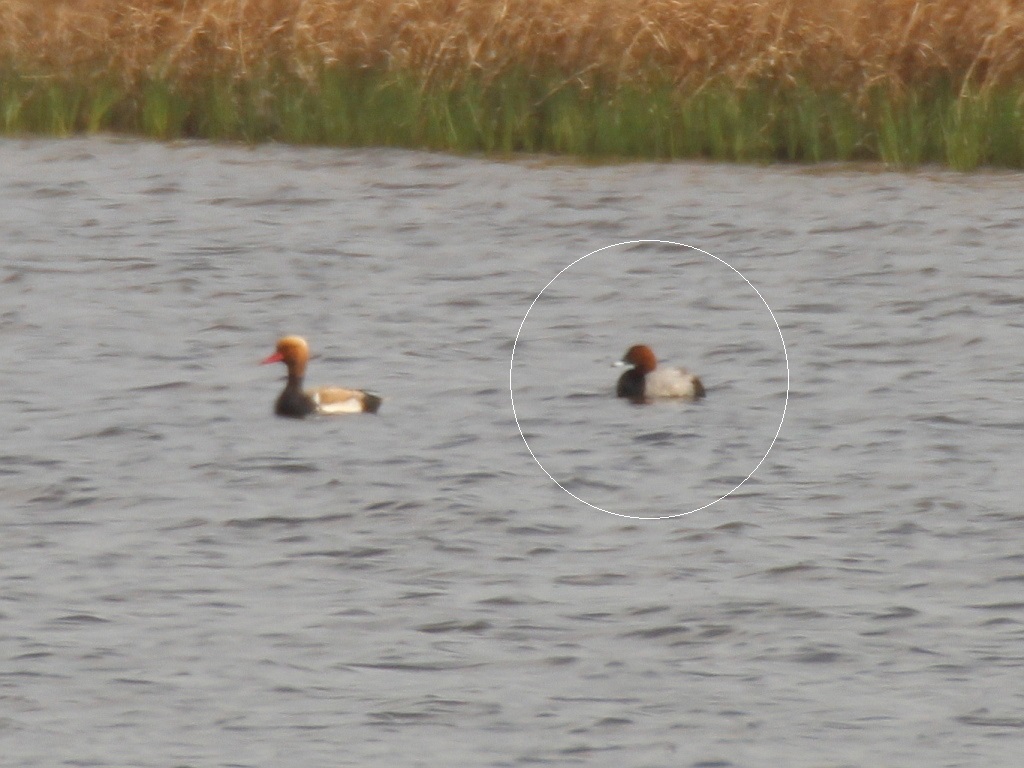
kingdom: Animalia
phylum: Chordata
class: Aves
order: Anseriformes
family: Anatidae
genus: Aythya
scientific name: Aythya ferina
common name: Common pochard
